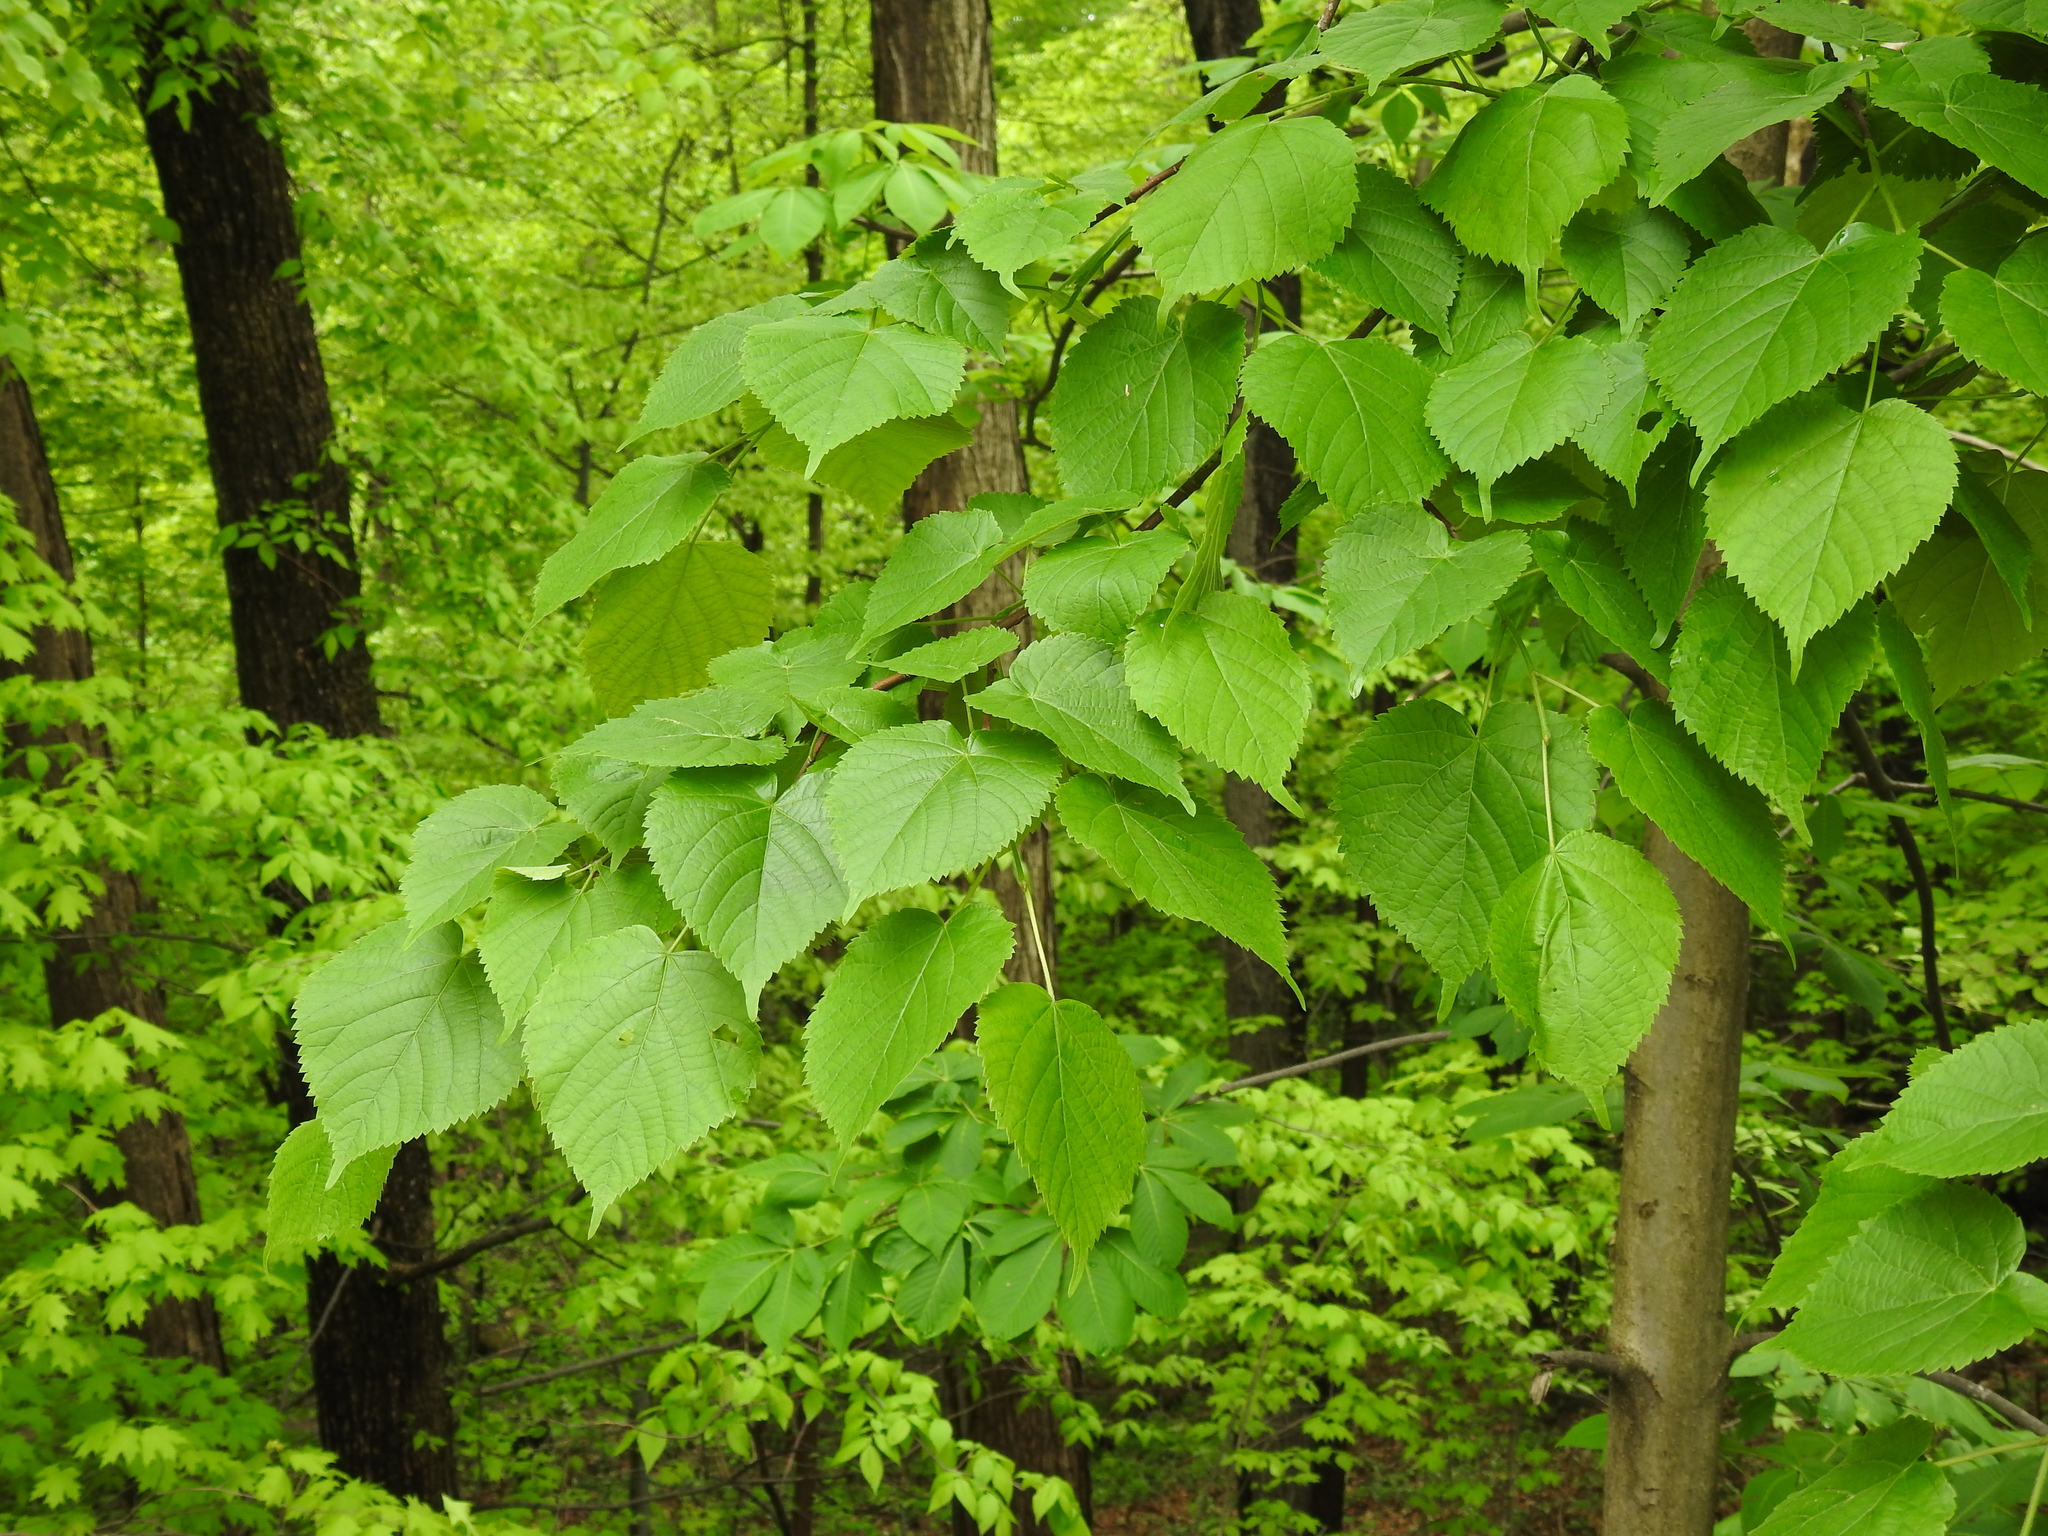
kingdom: Plantae
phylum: Tracheophyta
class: Magnoliopsida
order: Malvales
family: Malvaceae
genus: Tilia
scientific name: Tilia americana
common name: Basswood
